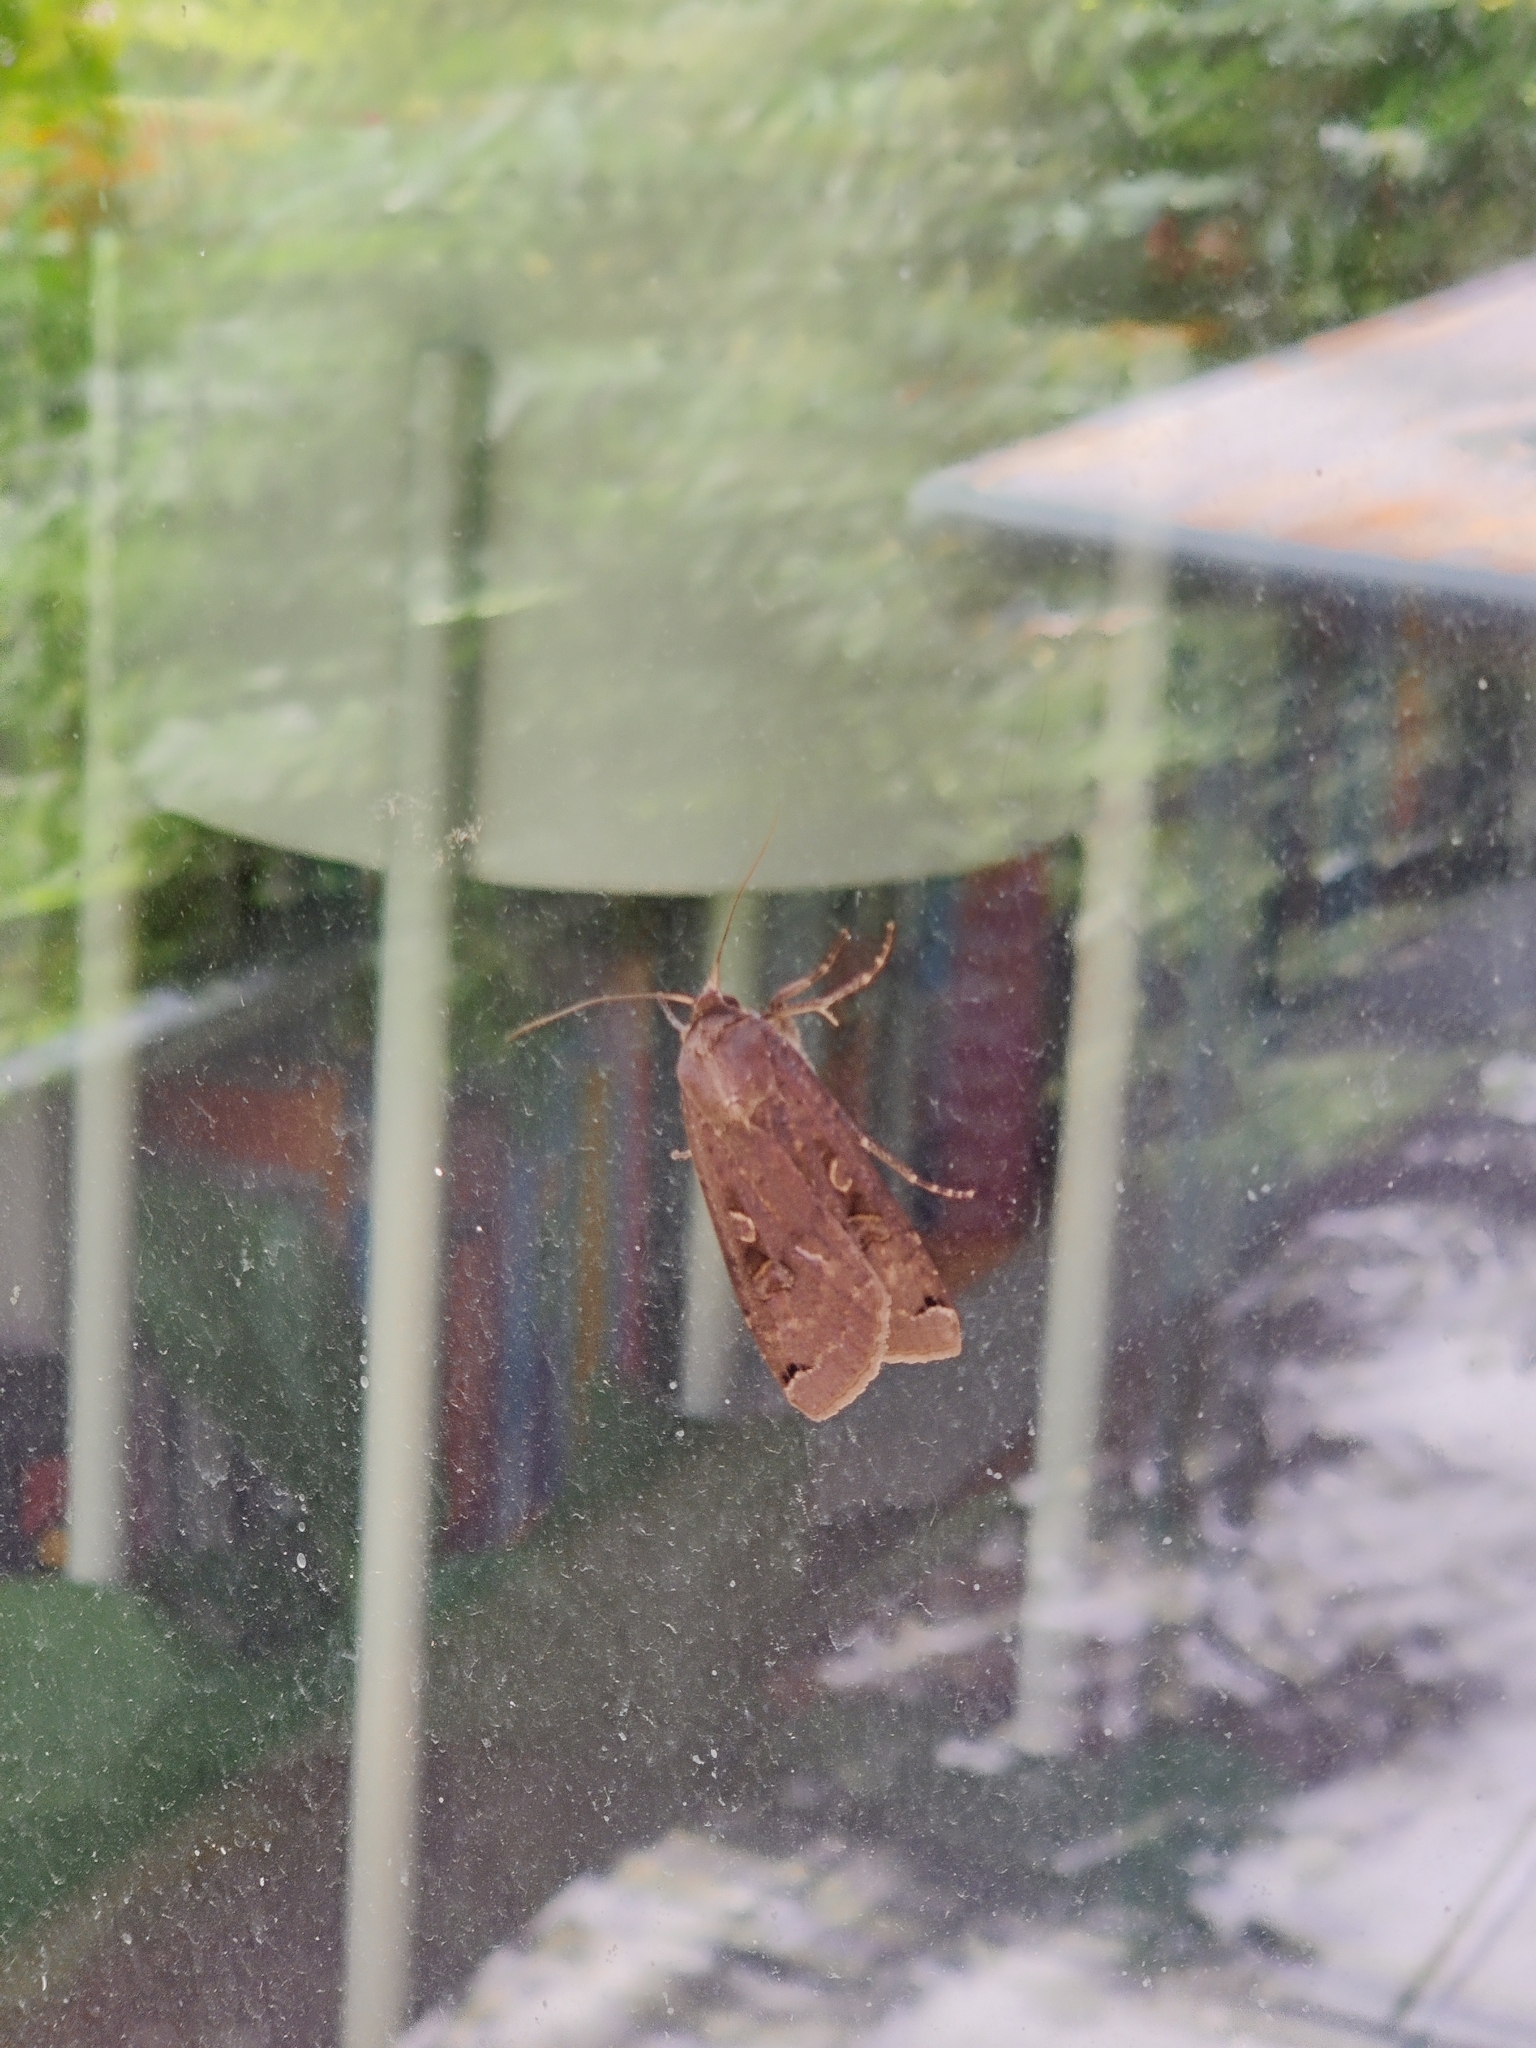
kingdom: Animalia
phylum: Arthropoda
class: Insecta
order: Lepidoptera
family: Noctuidae
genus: Noctua
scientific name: Noctua pronuba
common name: Large yellow underwing
